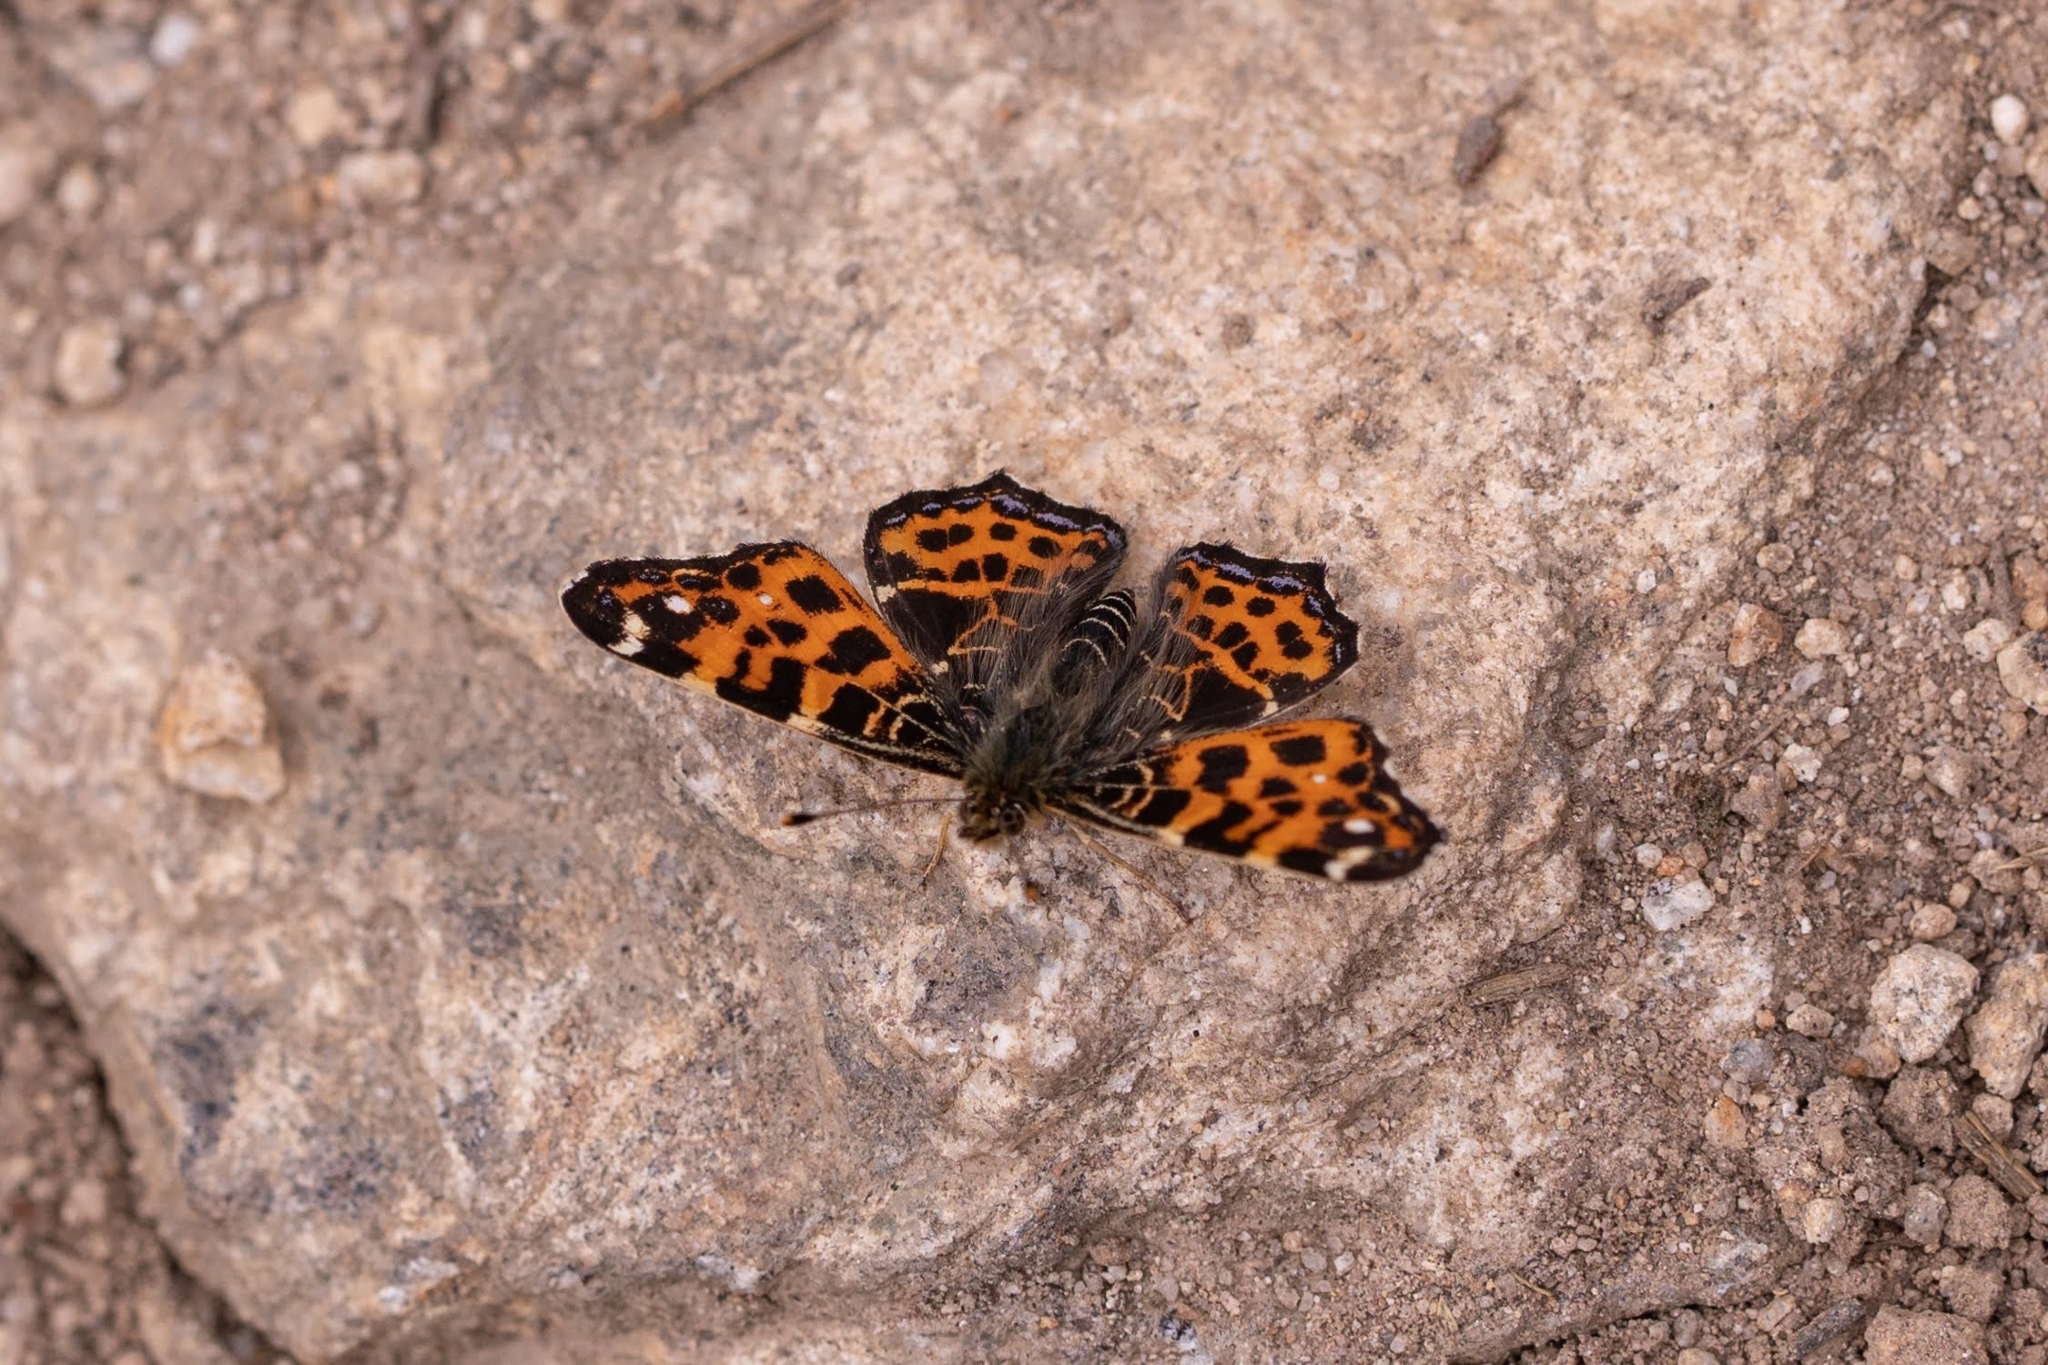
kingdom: Animalia
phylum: Arthropoda
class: Insecta
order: Lepidoptera
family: Nymphalidae
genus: Araschnia
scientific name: Araschnia levana
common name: Map butterfly
